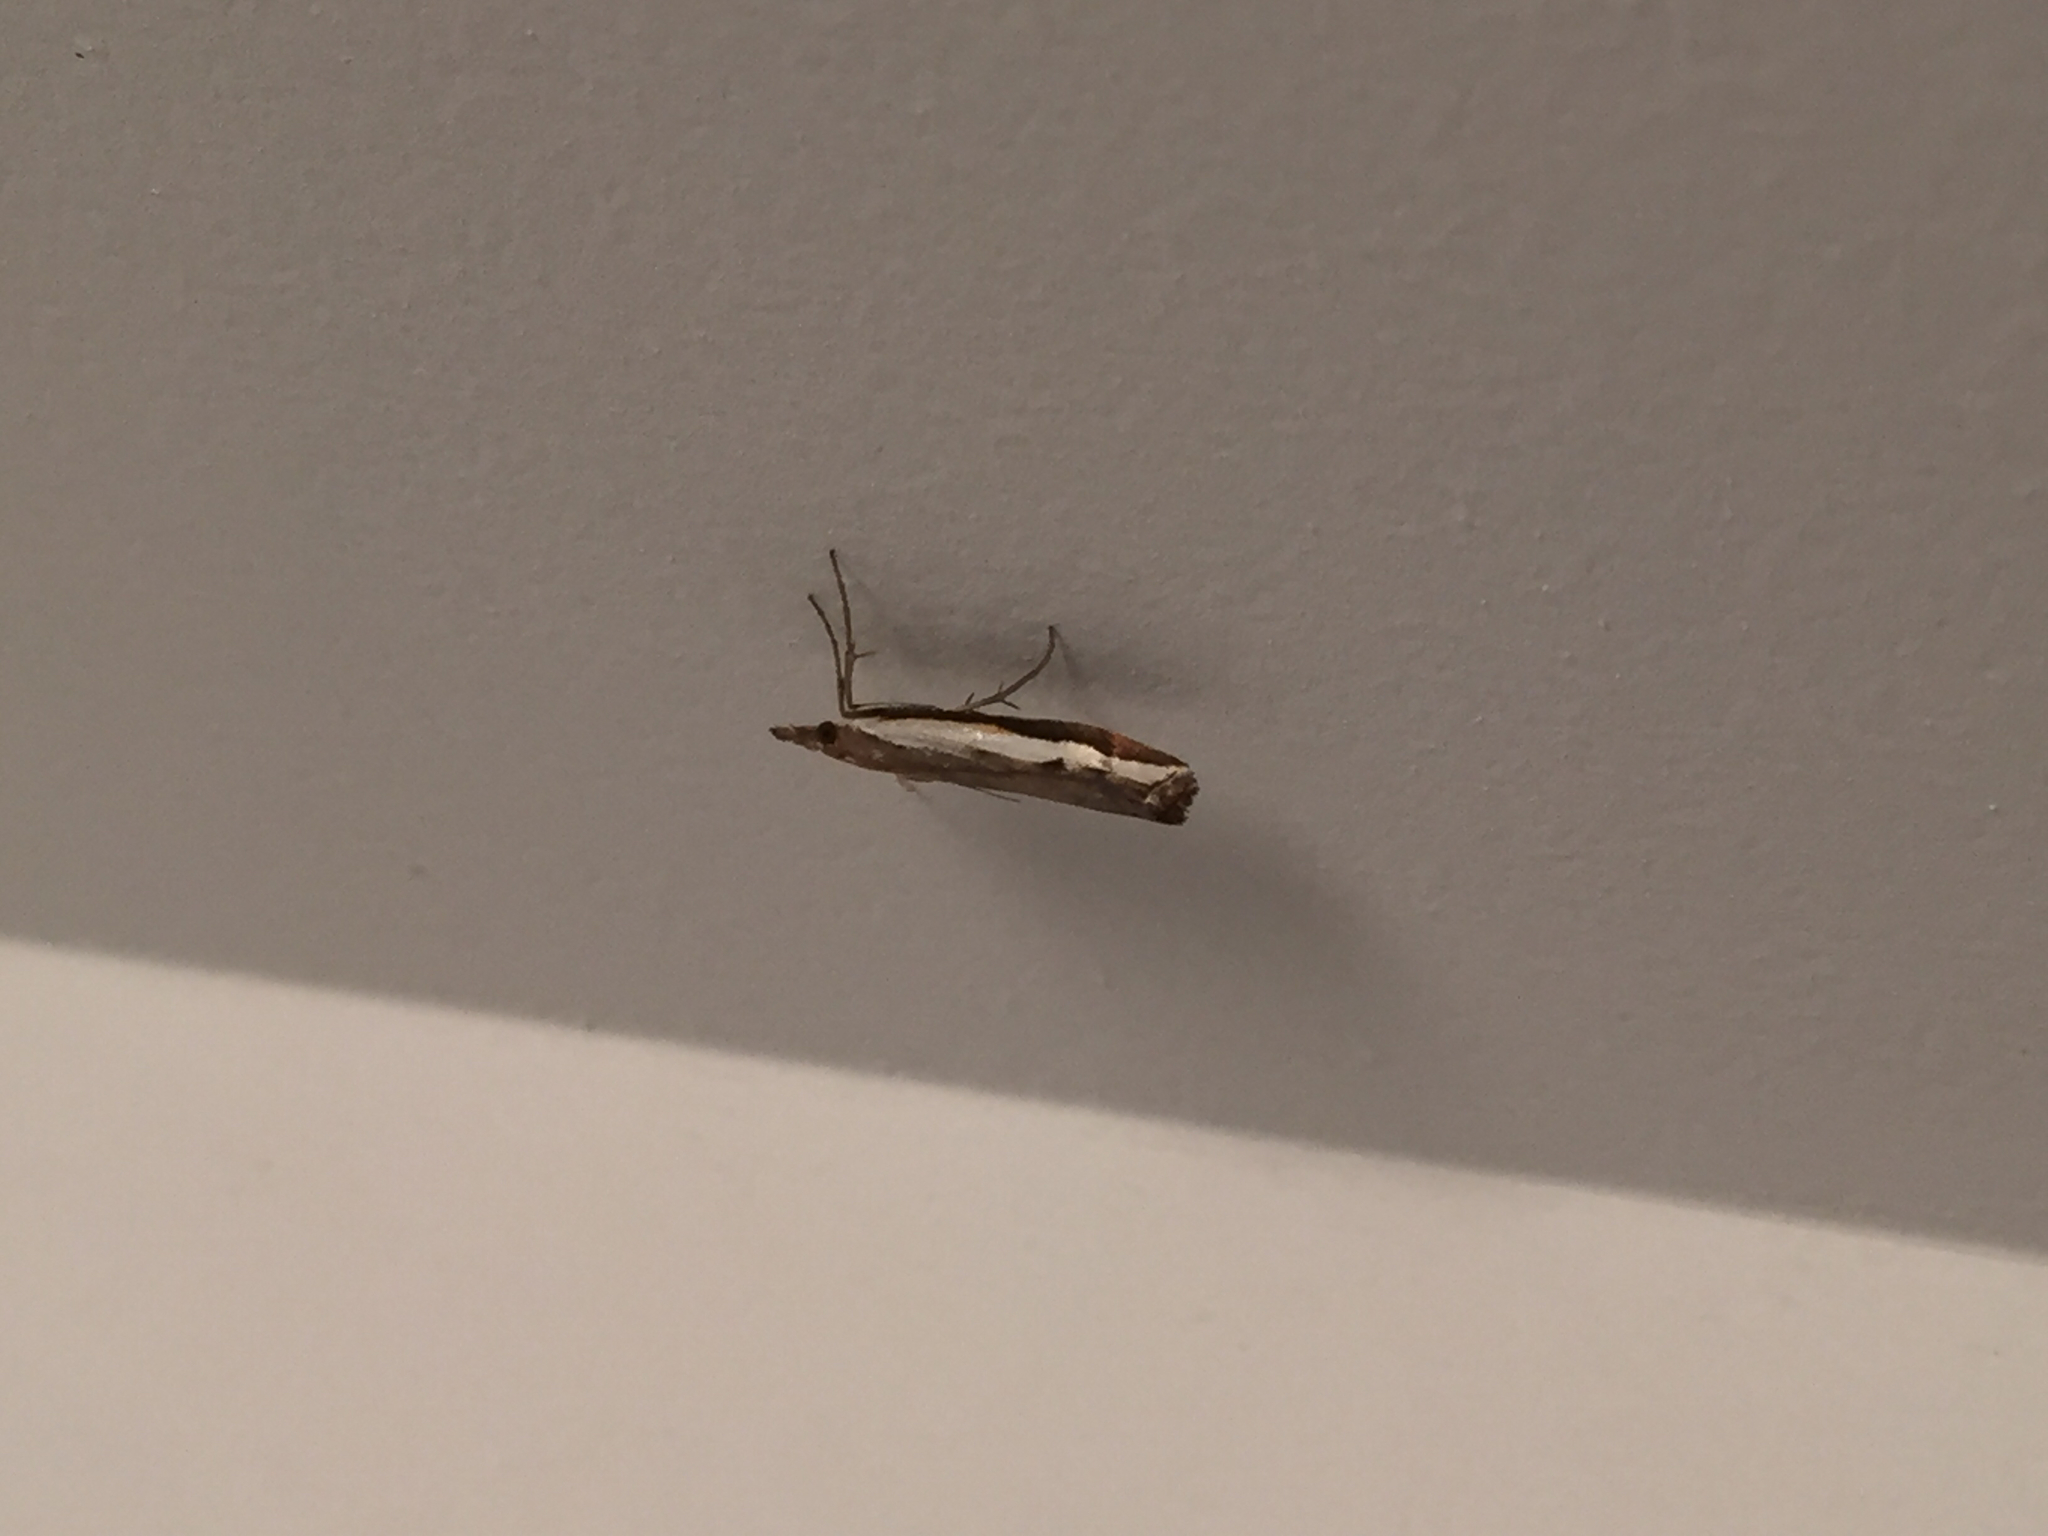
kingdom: Animalia
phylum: Arthropoda
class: Insecta
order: Lepidoptera
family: Crambidae
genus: Orocrambus
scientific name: Orocrambus flexuosellus
